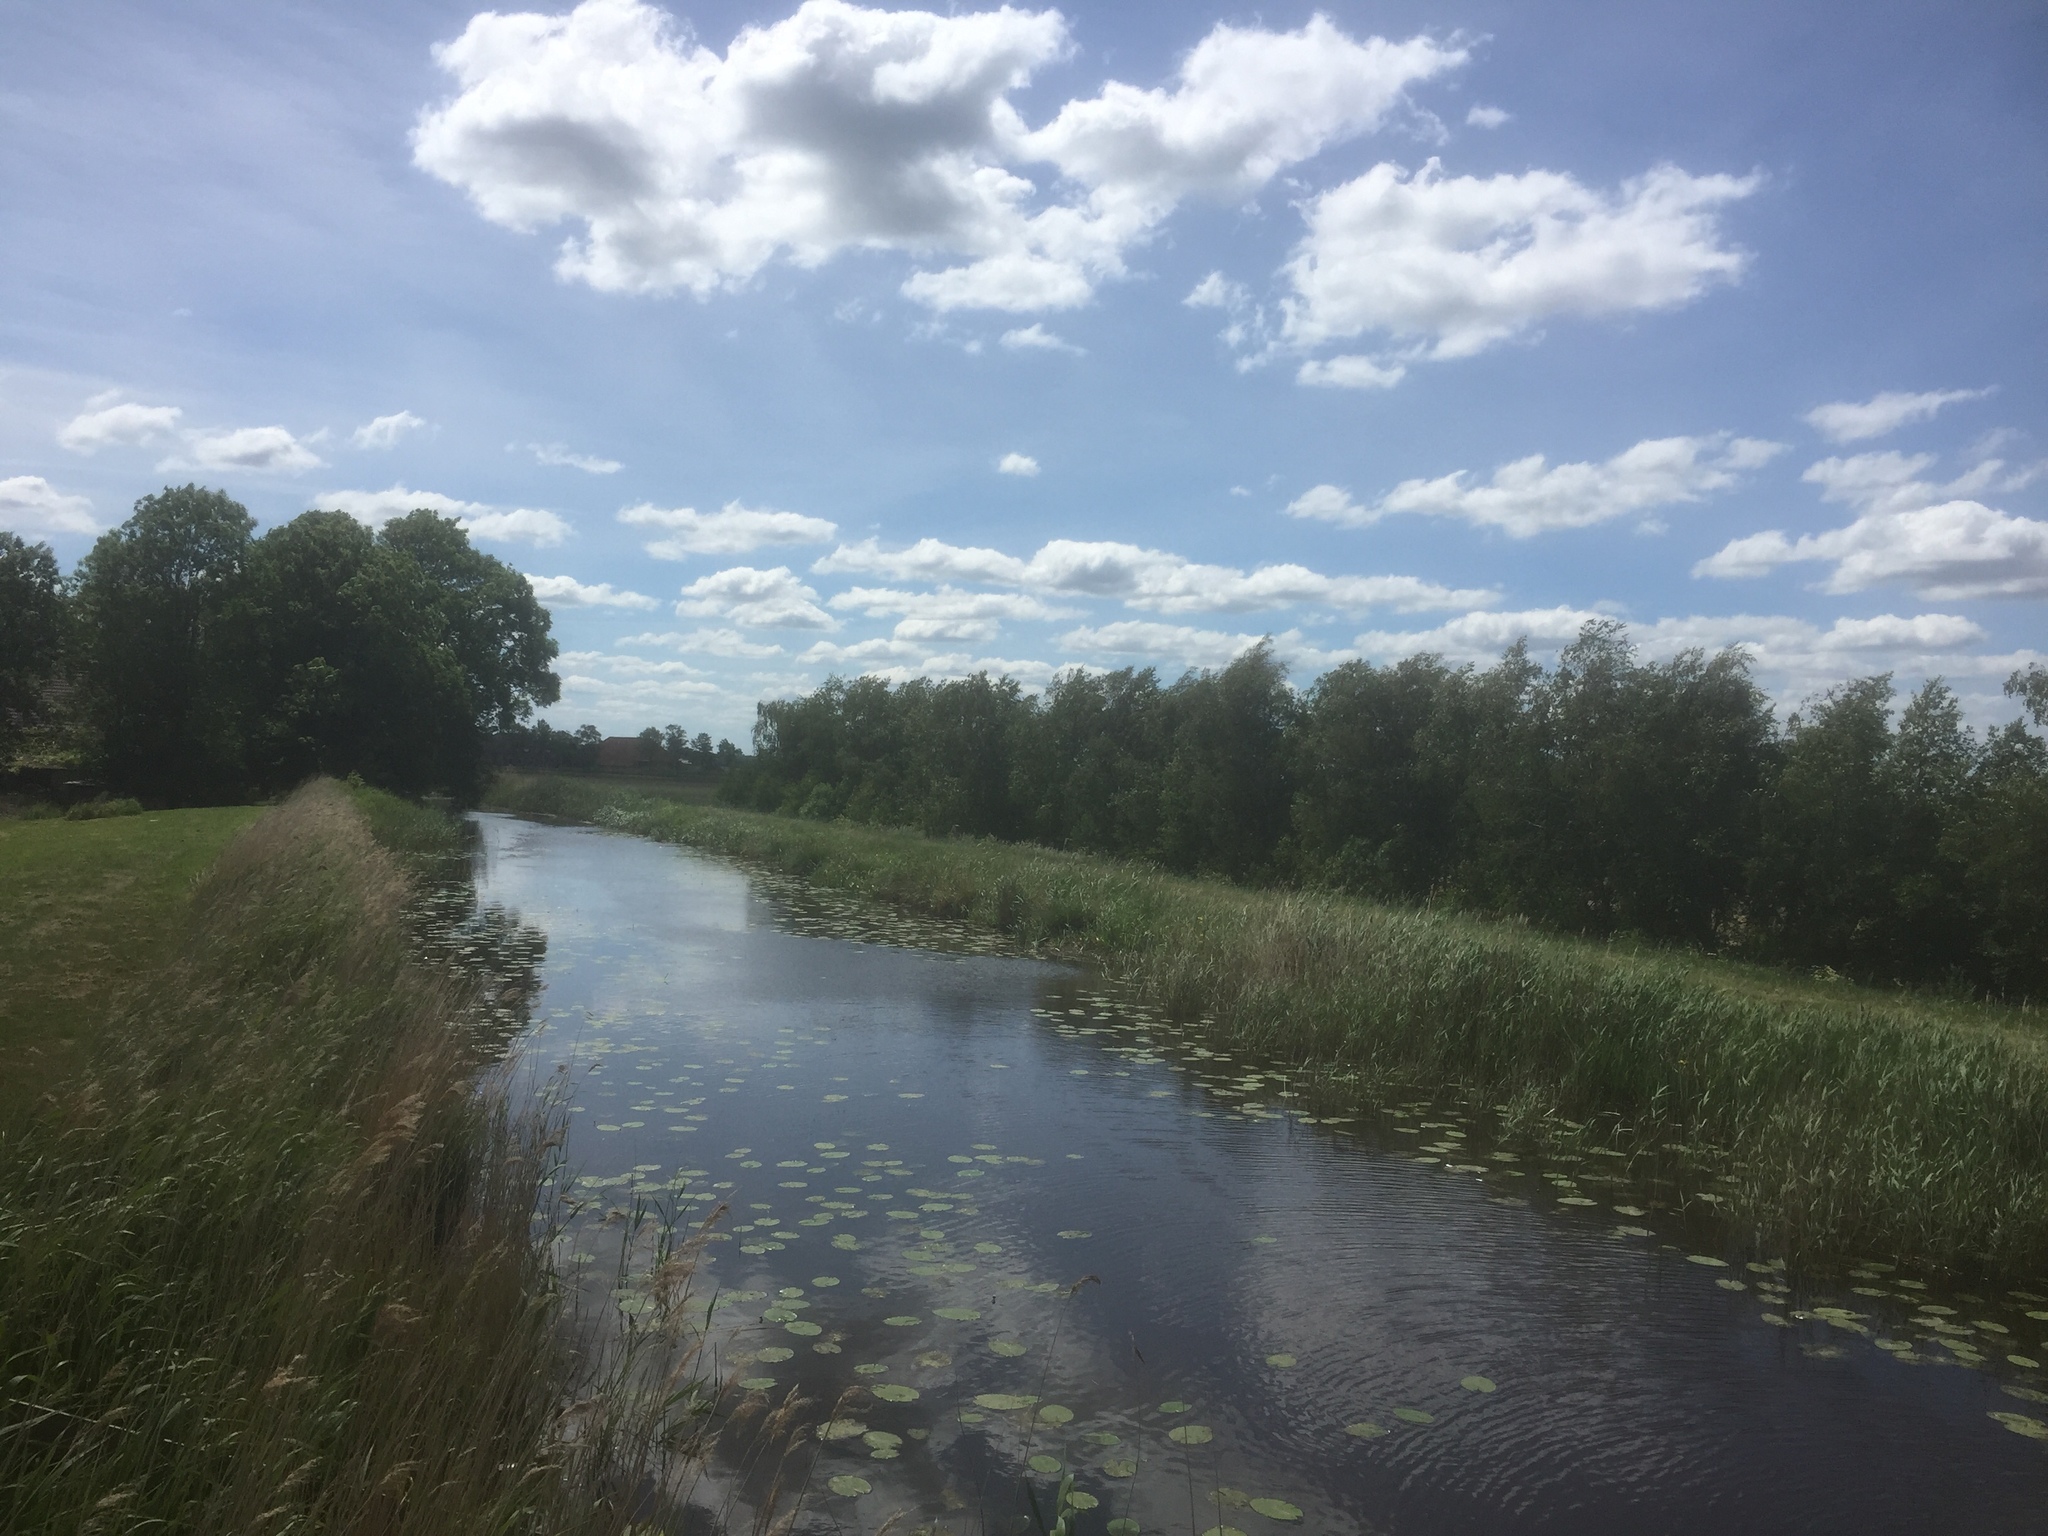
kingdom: Plantae
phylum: Tracheophyta
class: Magnoliopsida
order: Nymphaeales
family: Nymphaeaceae
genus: Nuphar
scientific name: Nuphar lutea
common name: Yellow water-lily
